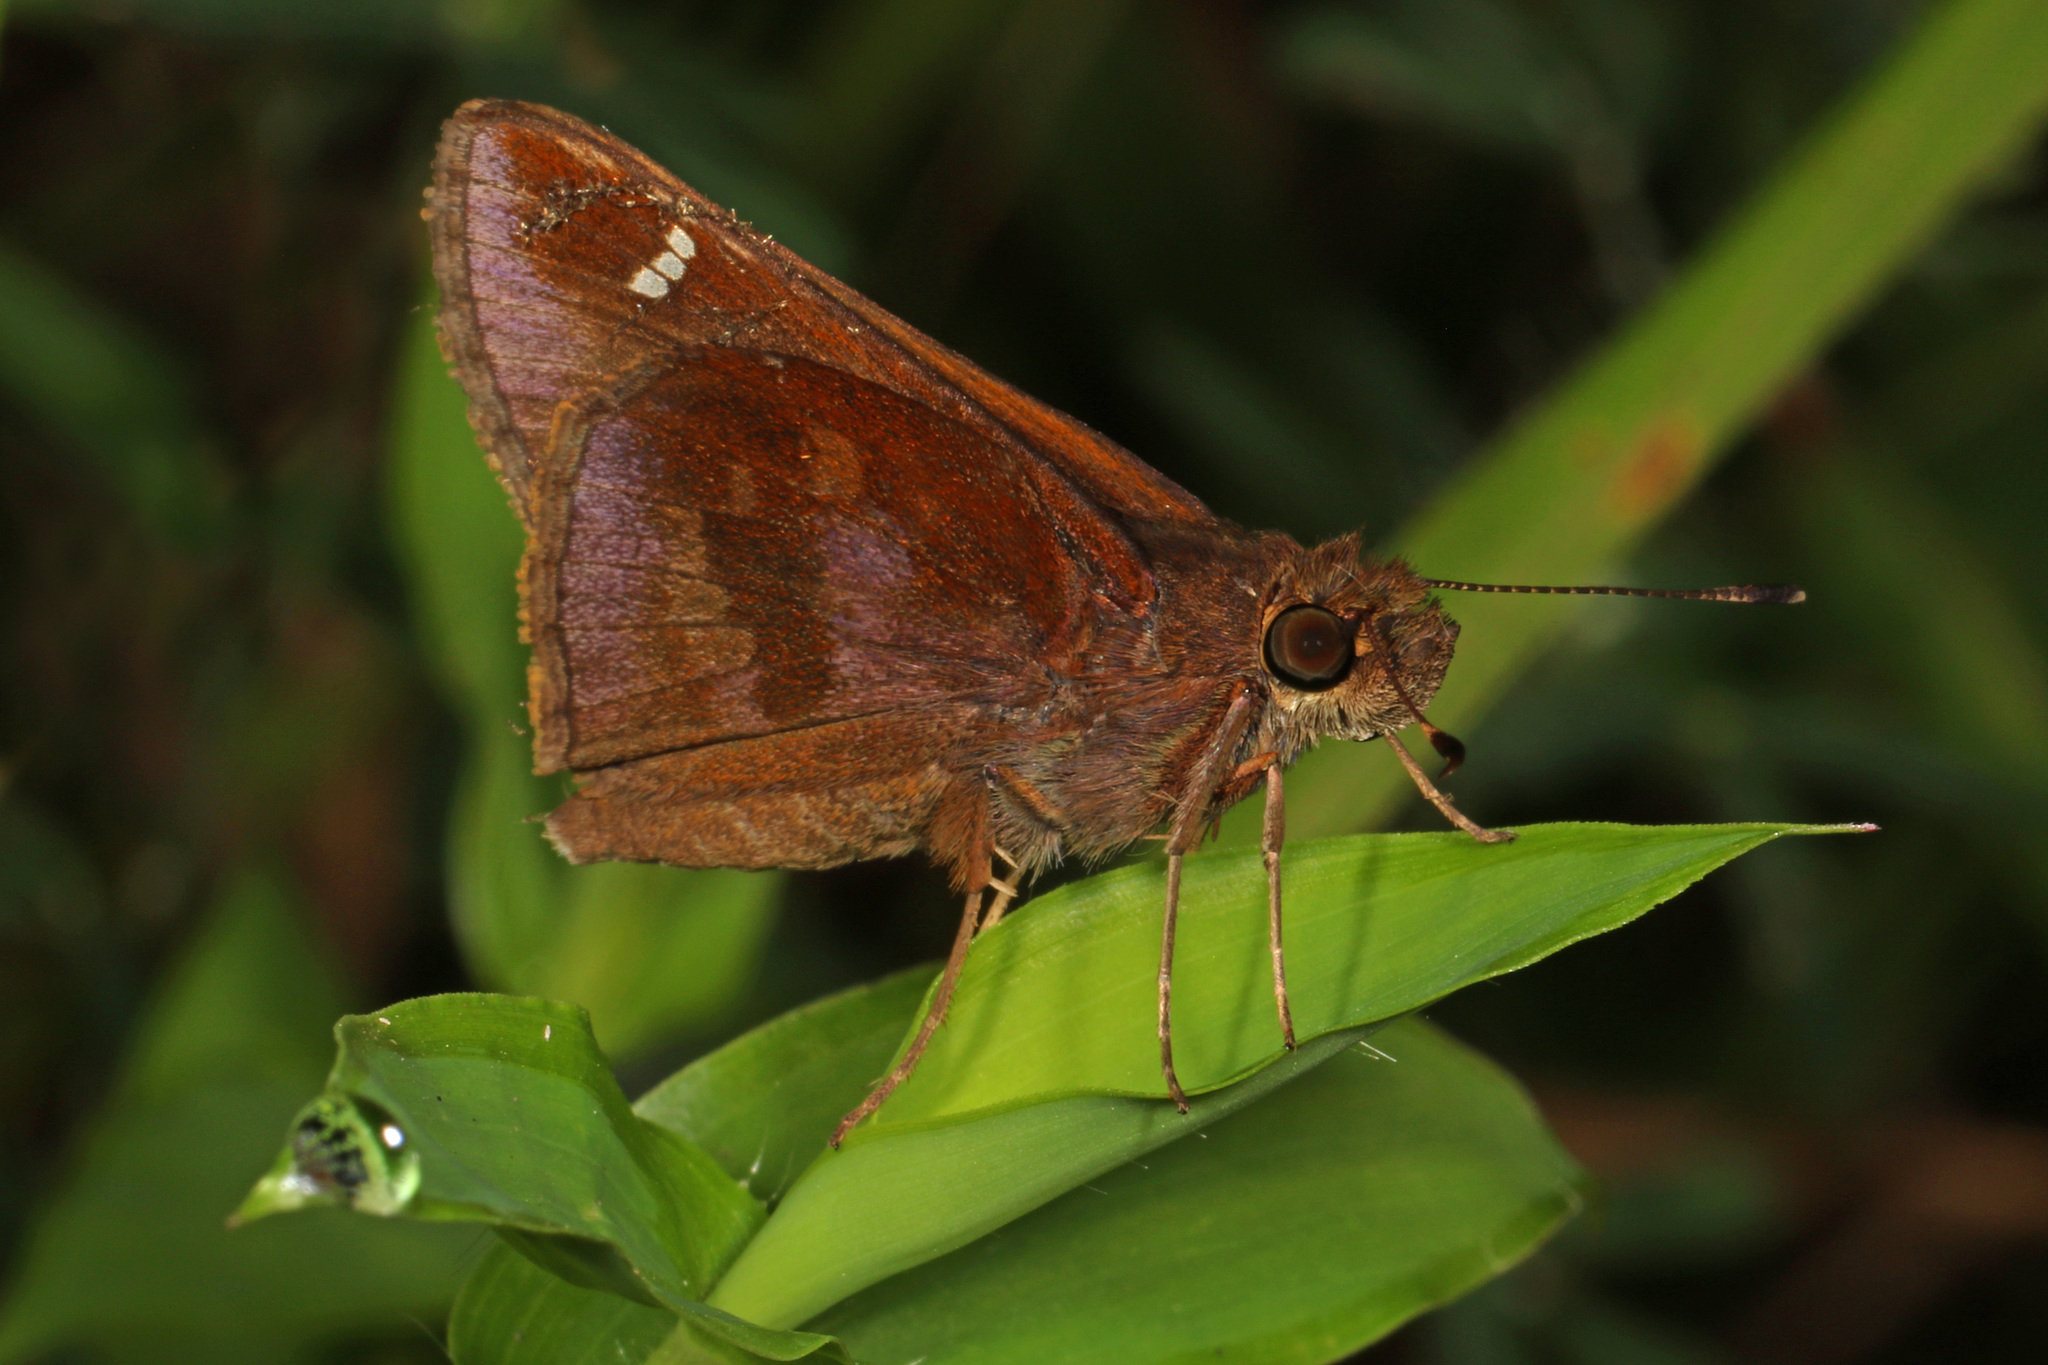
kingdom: Animalia
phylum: Arthropoda
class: Insecta
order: Lepidoptera
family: Hesperiidae
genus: Lerema
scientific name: Lerema accius
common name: Clouded skipper
